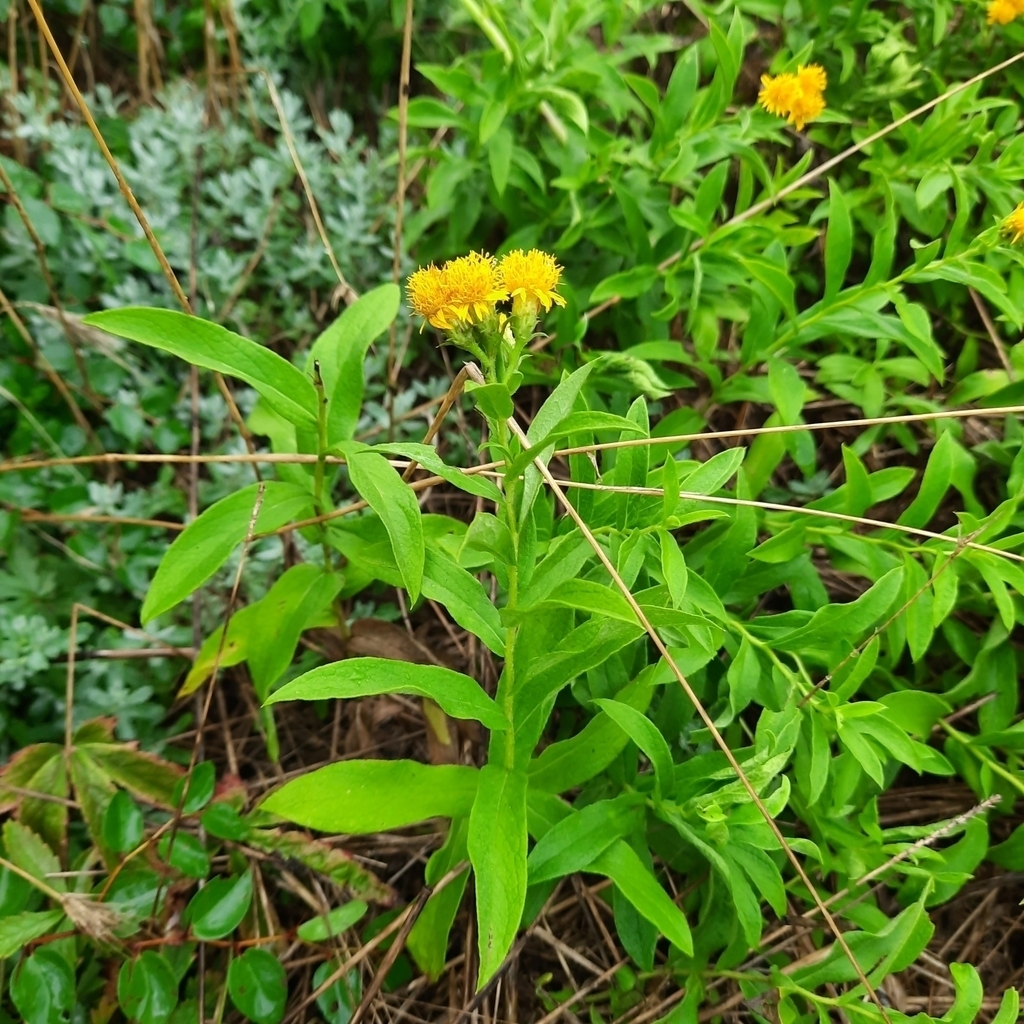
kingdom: Plantae
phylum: Tracheophyta
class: Magnoliopsida
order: Asterales
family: Asteraceae
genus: Pentanema
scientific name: Pentanema germanicum
